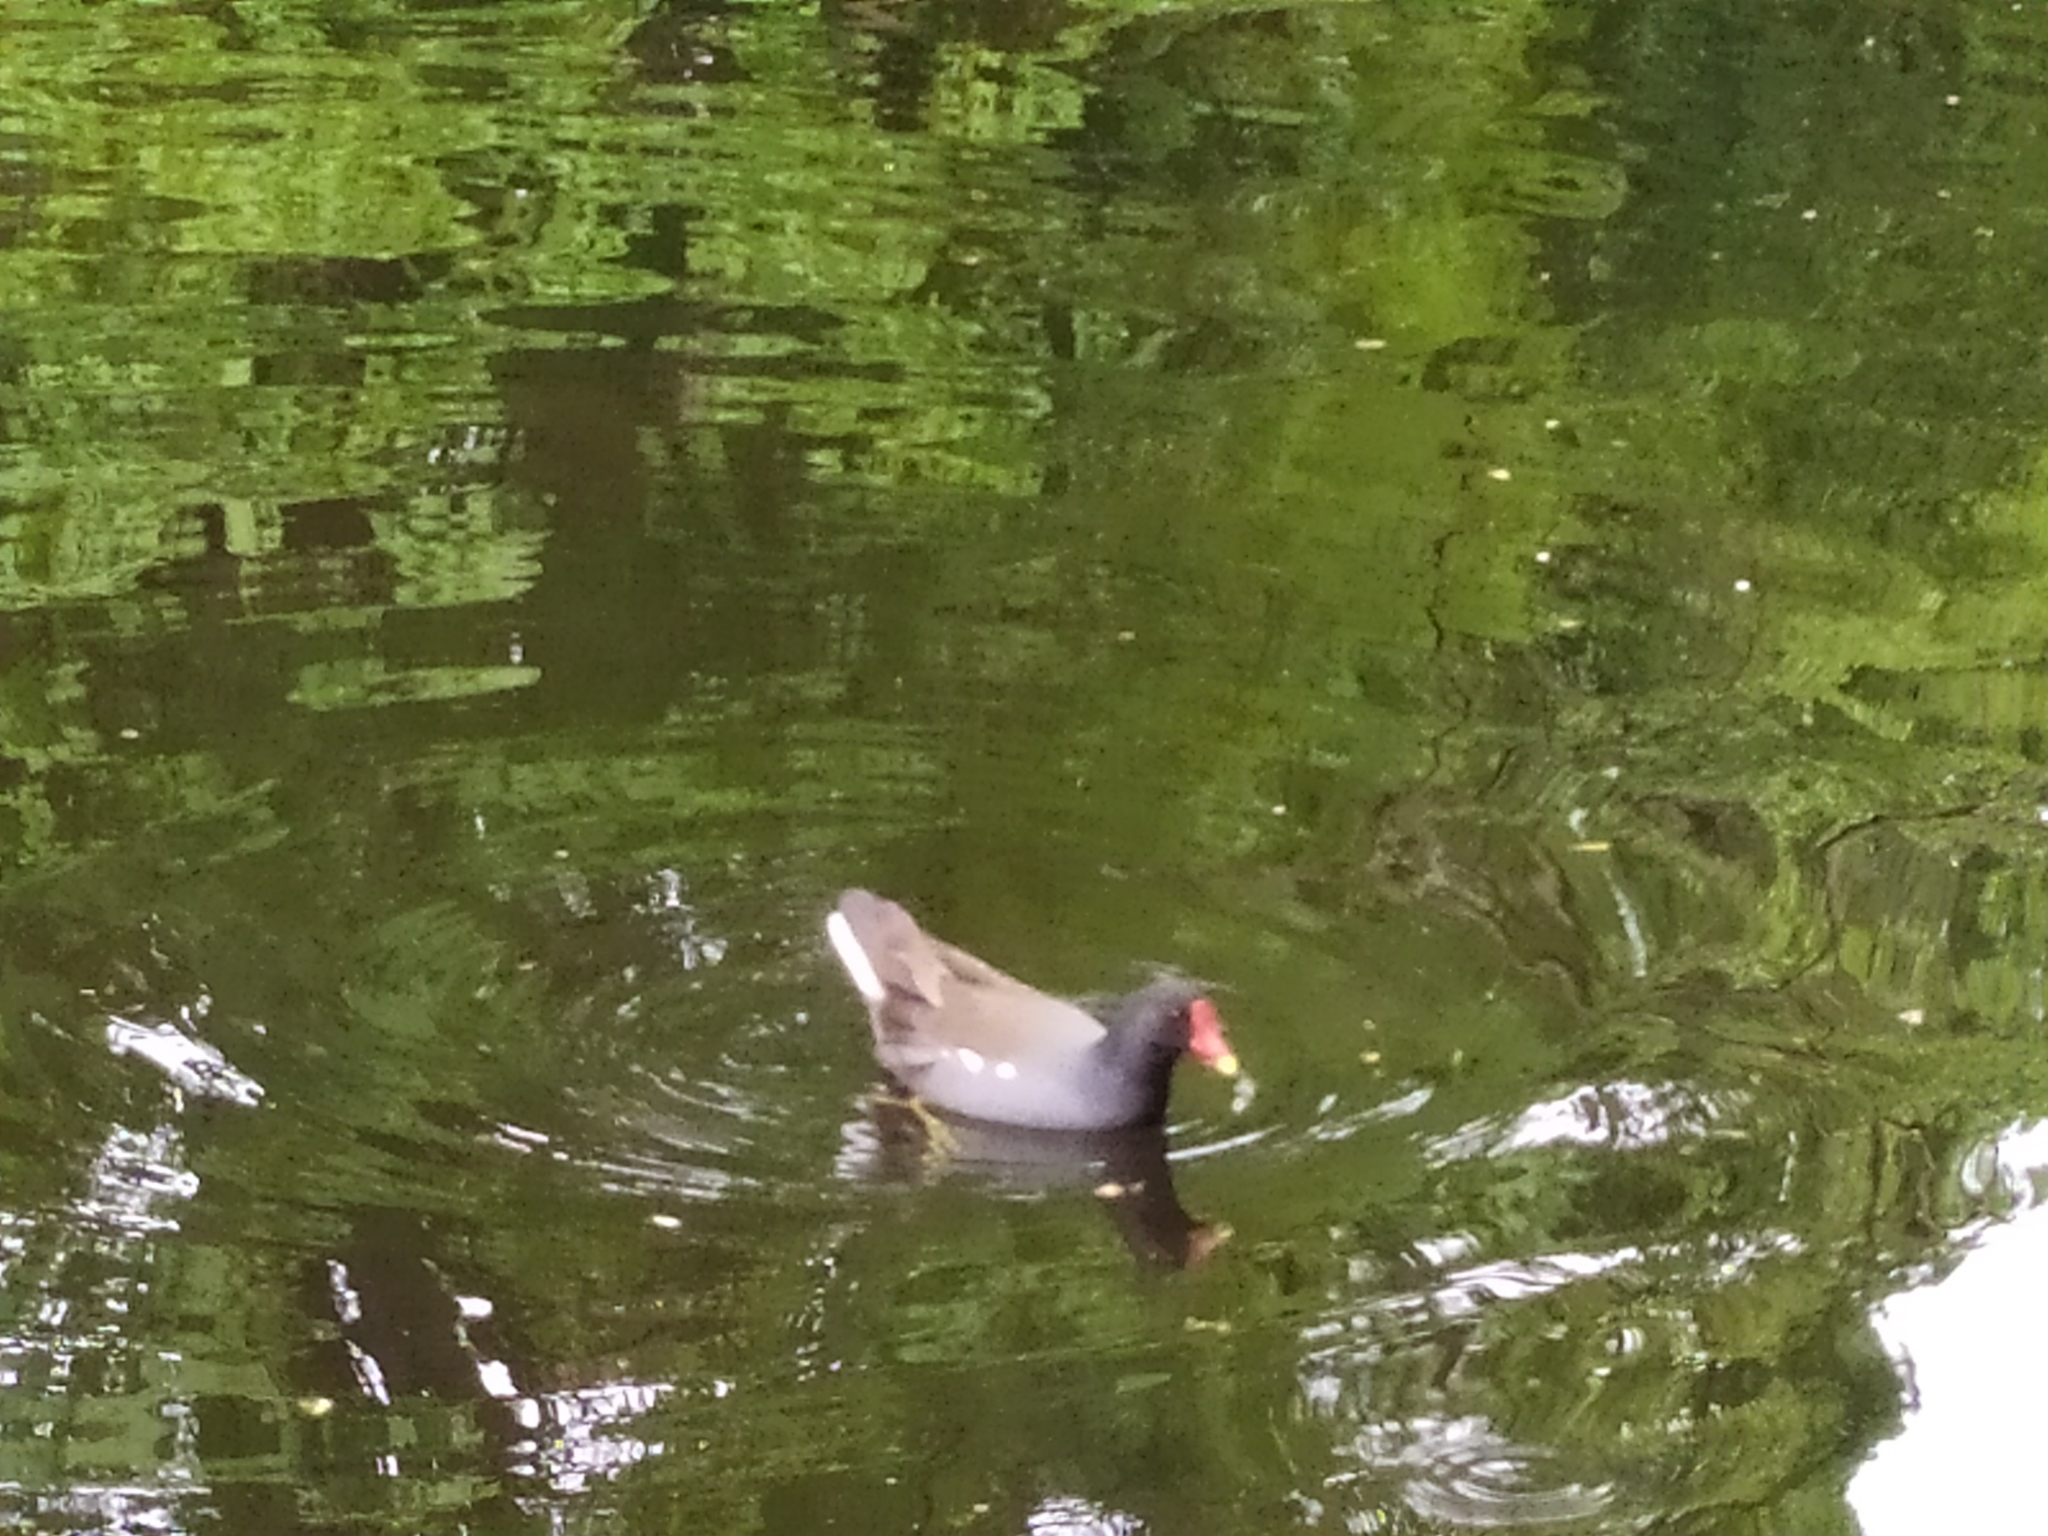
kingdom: Animalia
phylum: Chordata
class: Aves
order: Gruiformes
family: Rallidae
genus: Gallinula
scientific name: Gallinula chloropus
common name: Common moorhen
